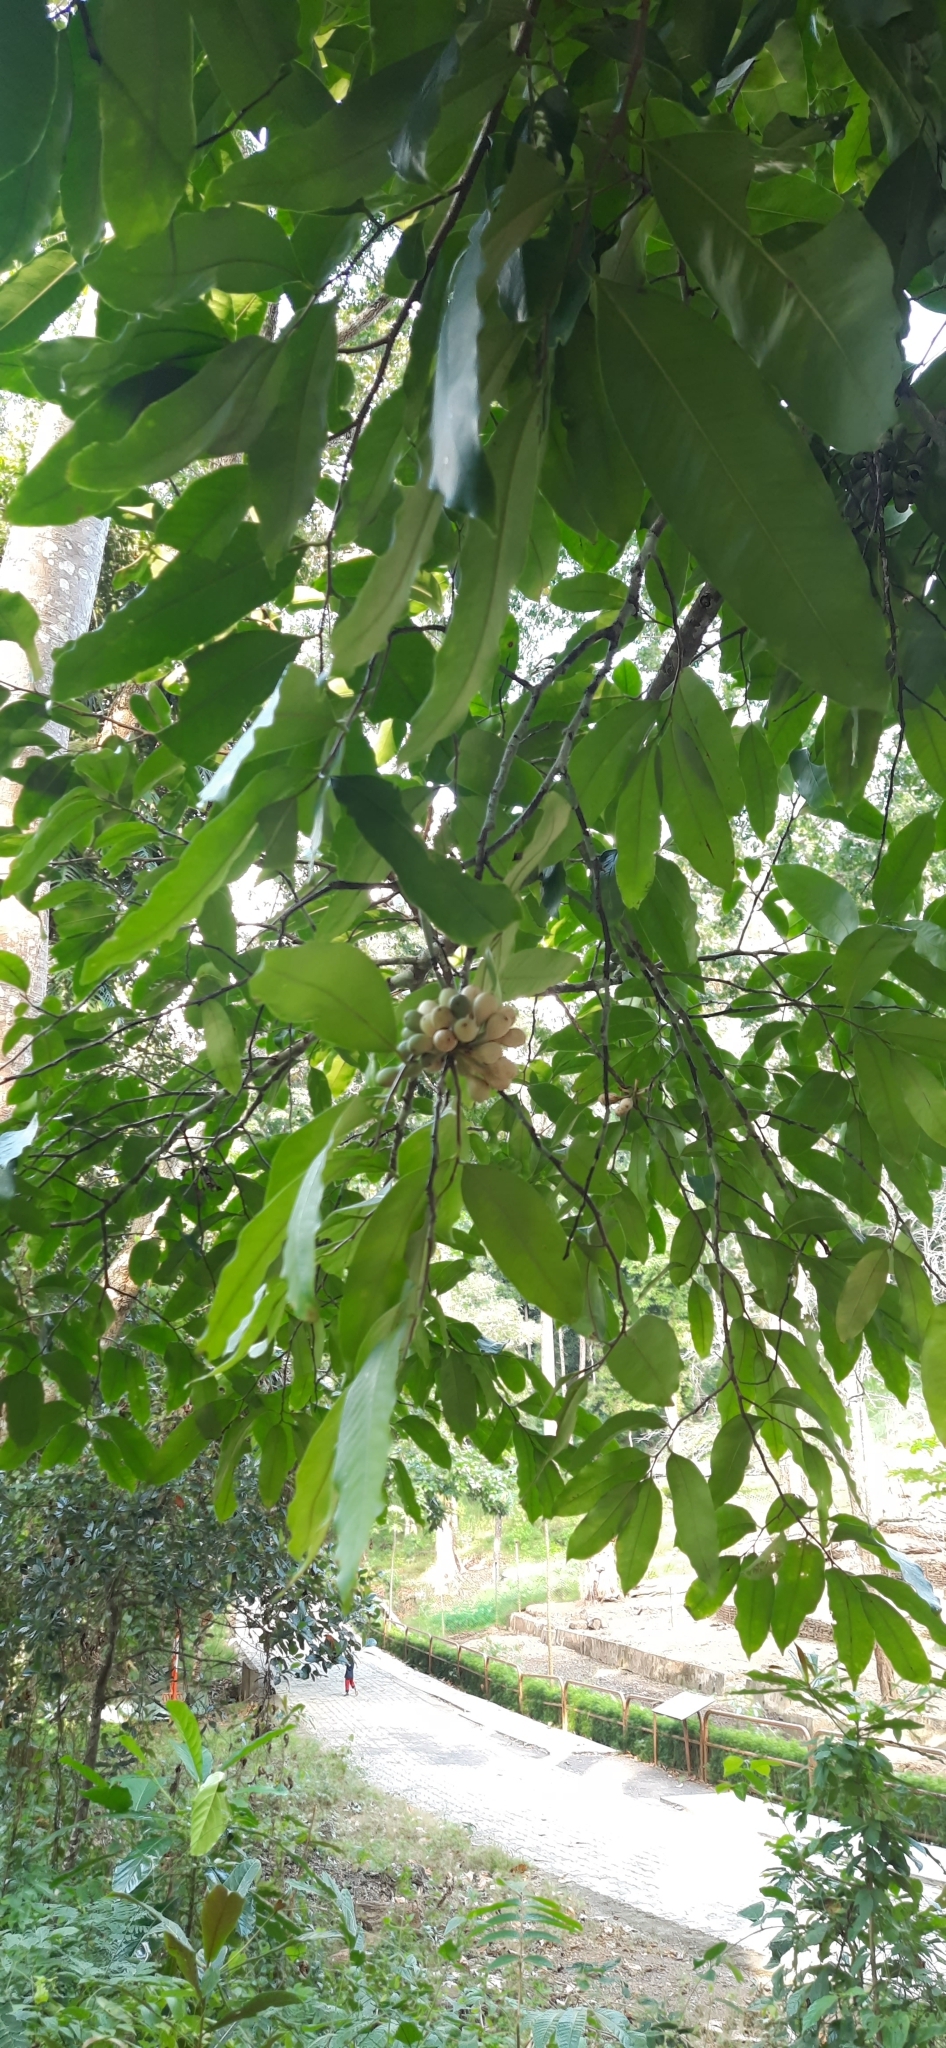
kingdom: Plantae
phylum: Tracheophyta
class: Magnoliopsida
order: Magnoliales
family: Annonaceae
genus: Goniothalamus
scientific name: Goniothalamus macranthus
